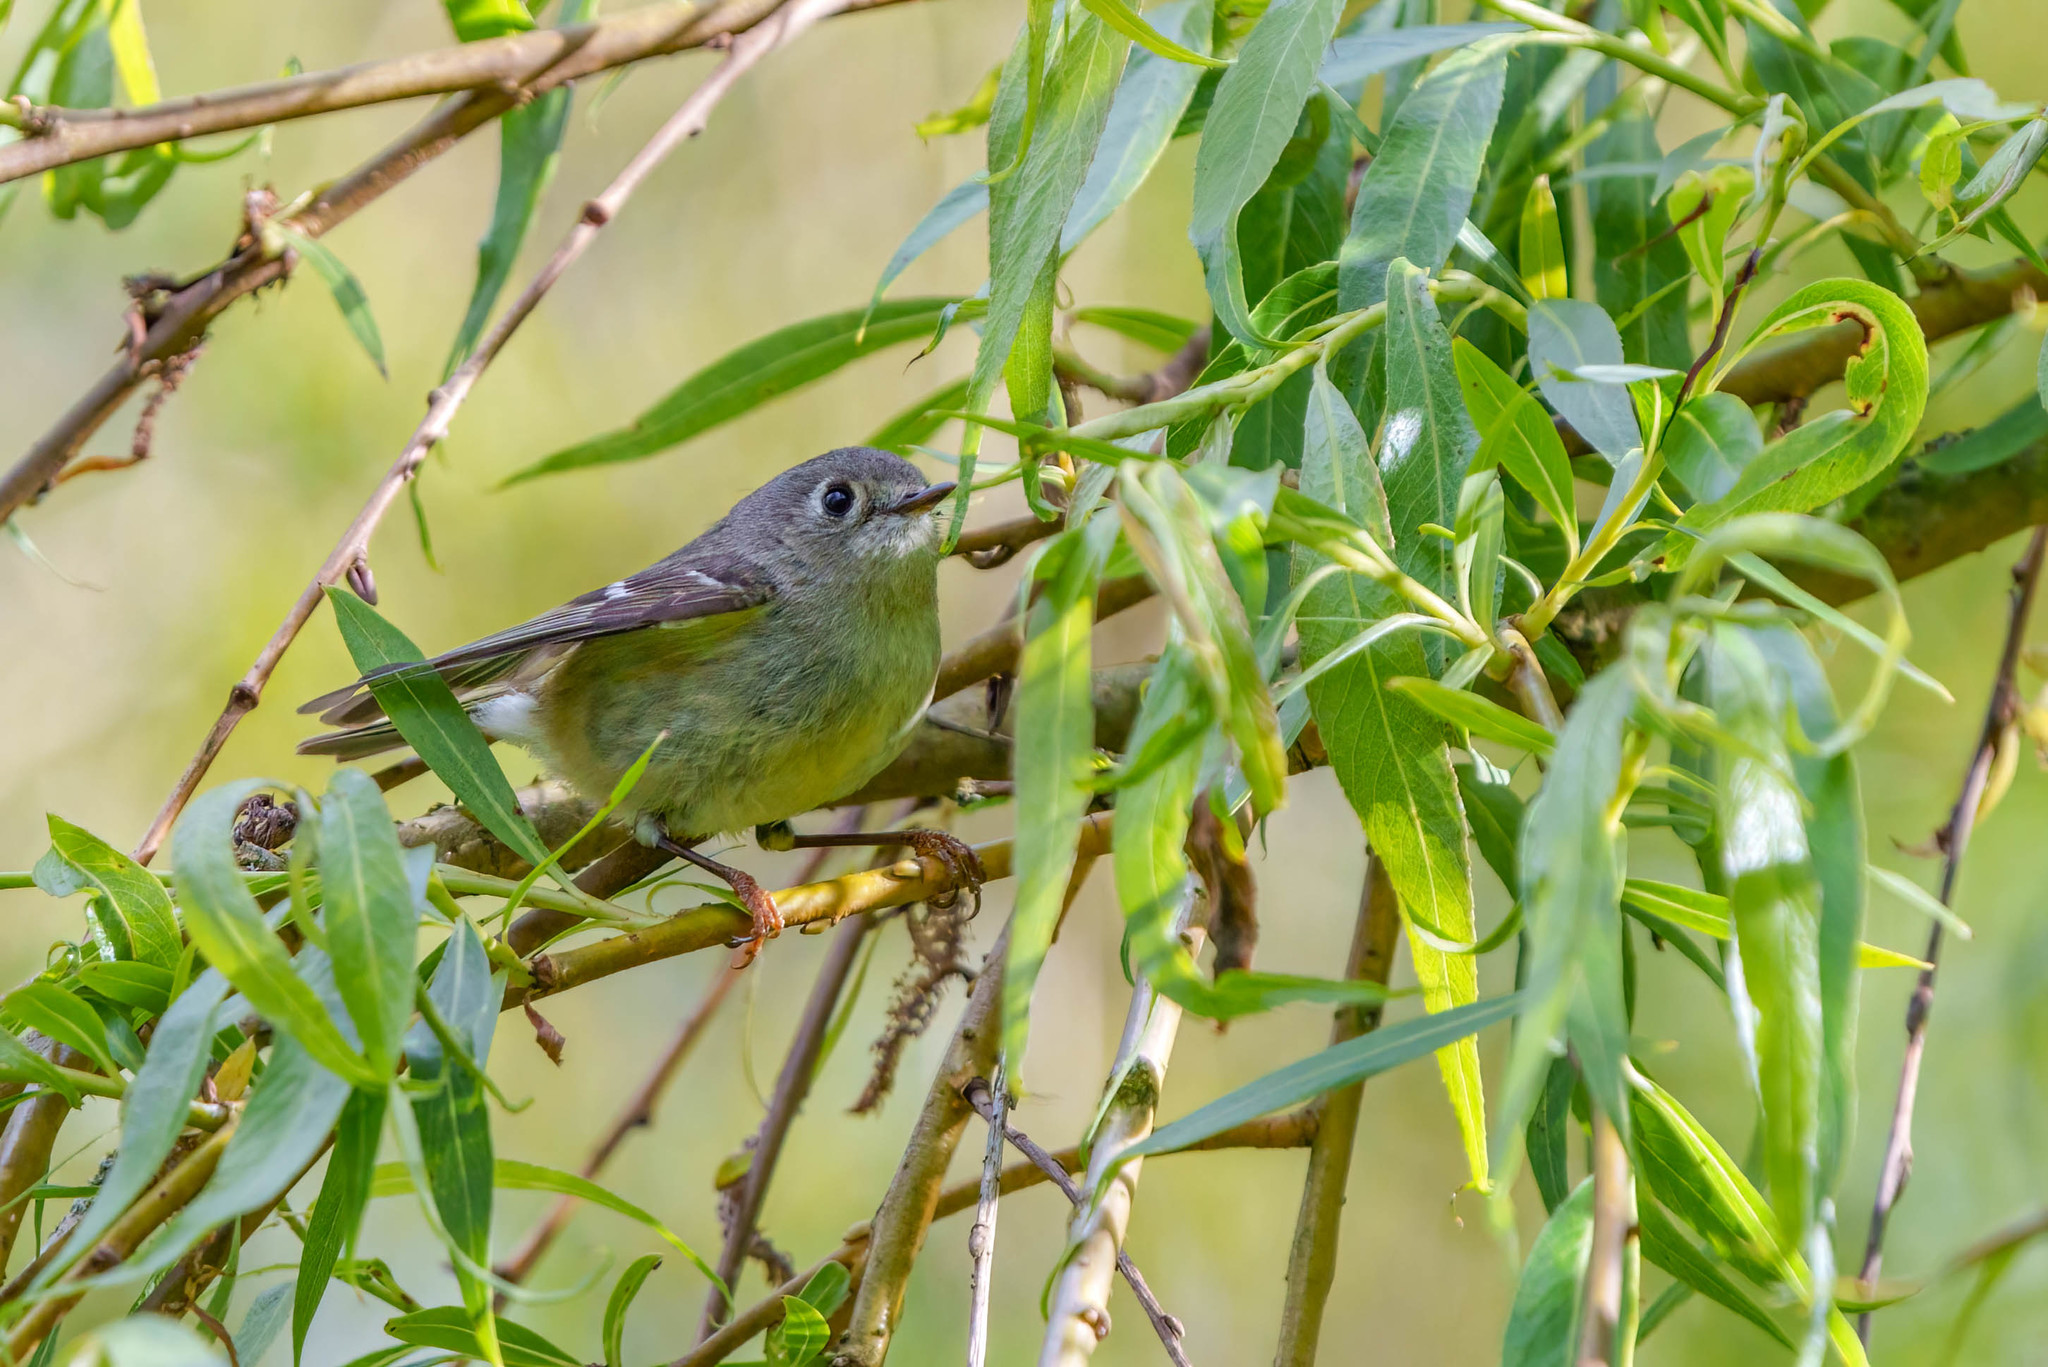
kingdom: Animalia
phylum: Chordata
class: Aves
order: Passeriformes
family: Regulidae
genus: Regulus
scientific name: Regulus calendula
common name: Ruby-crowned kinglet
